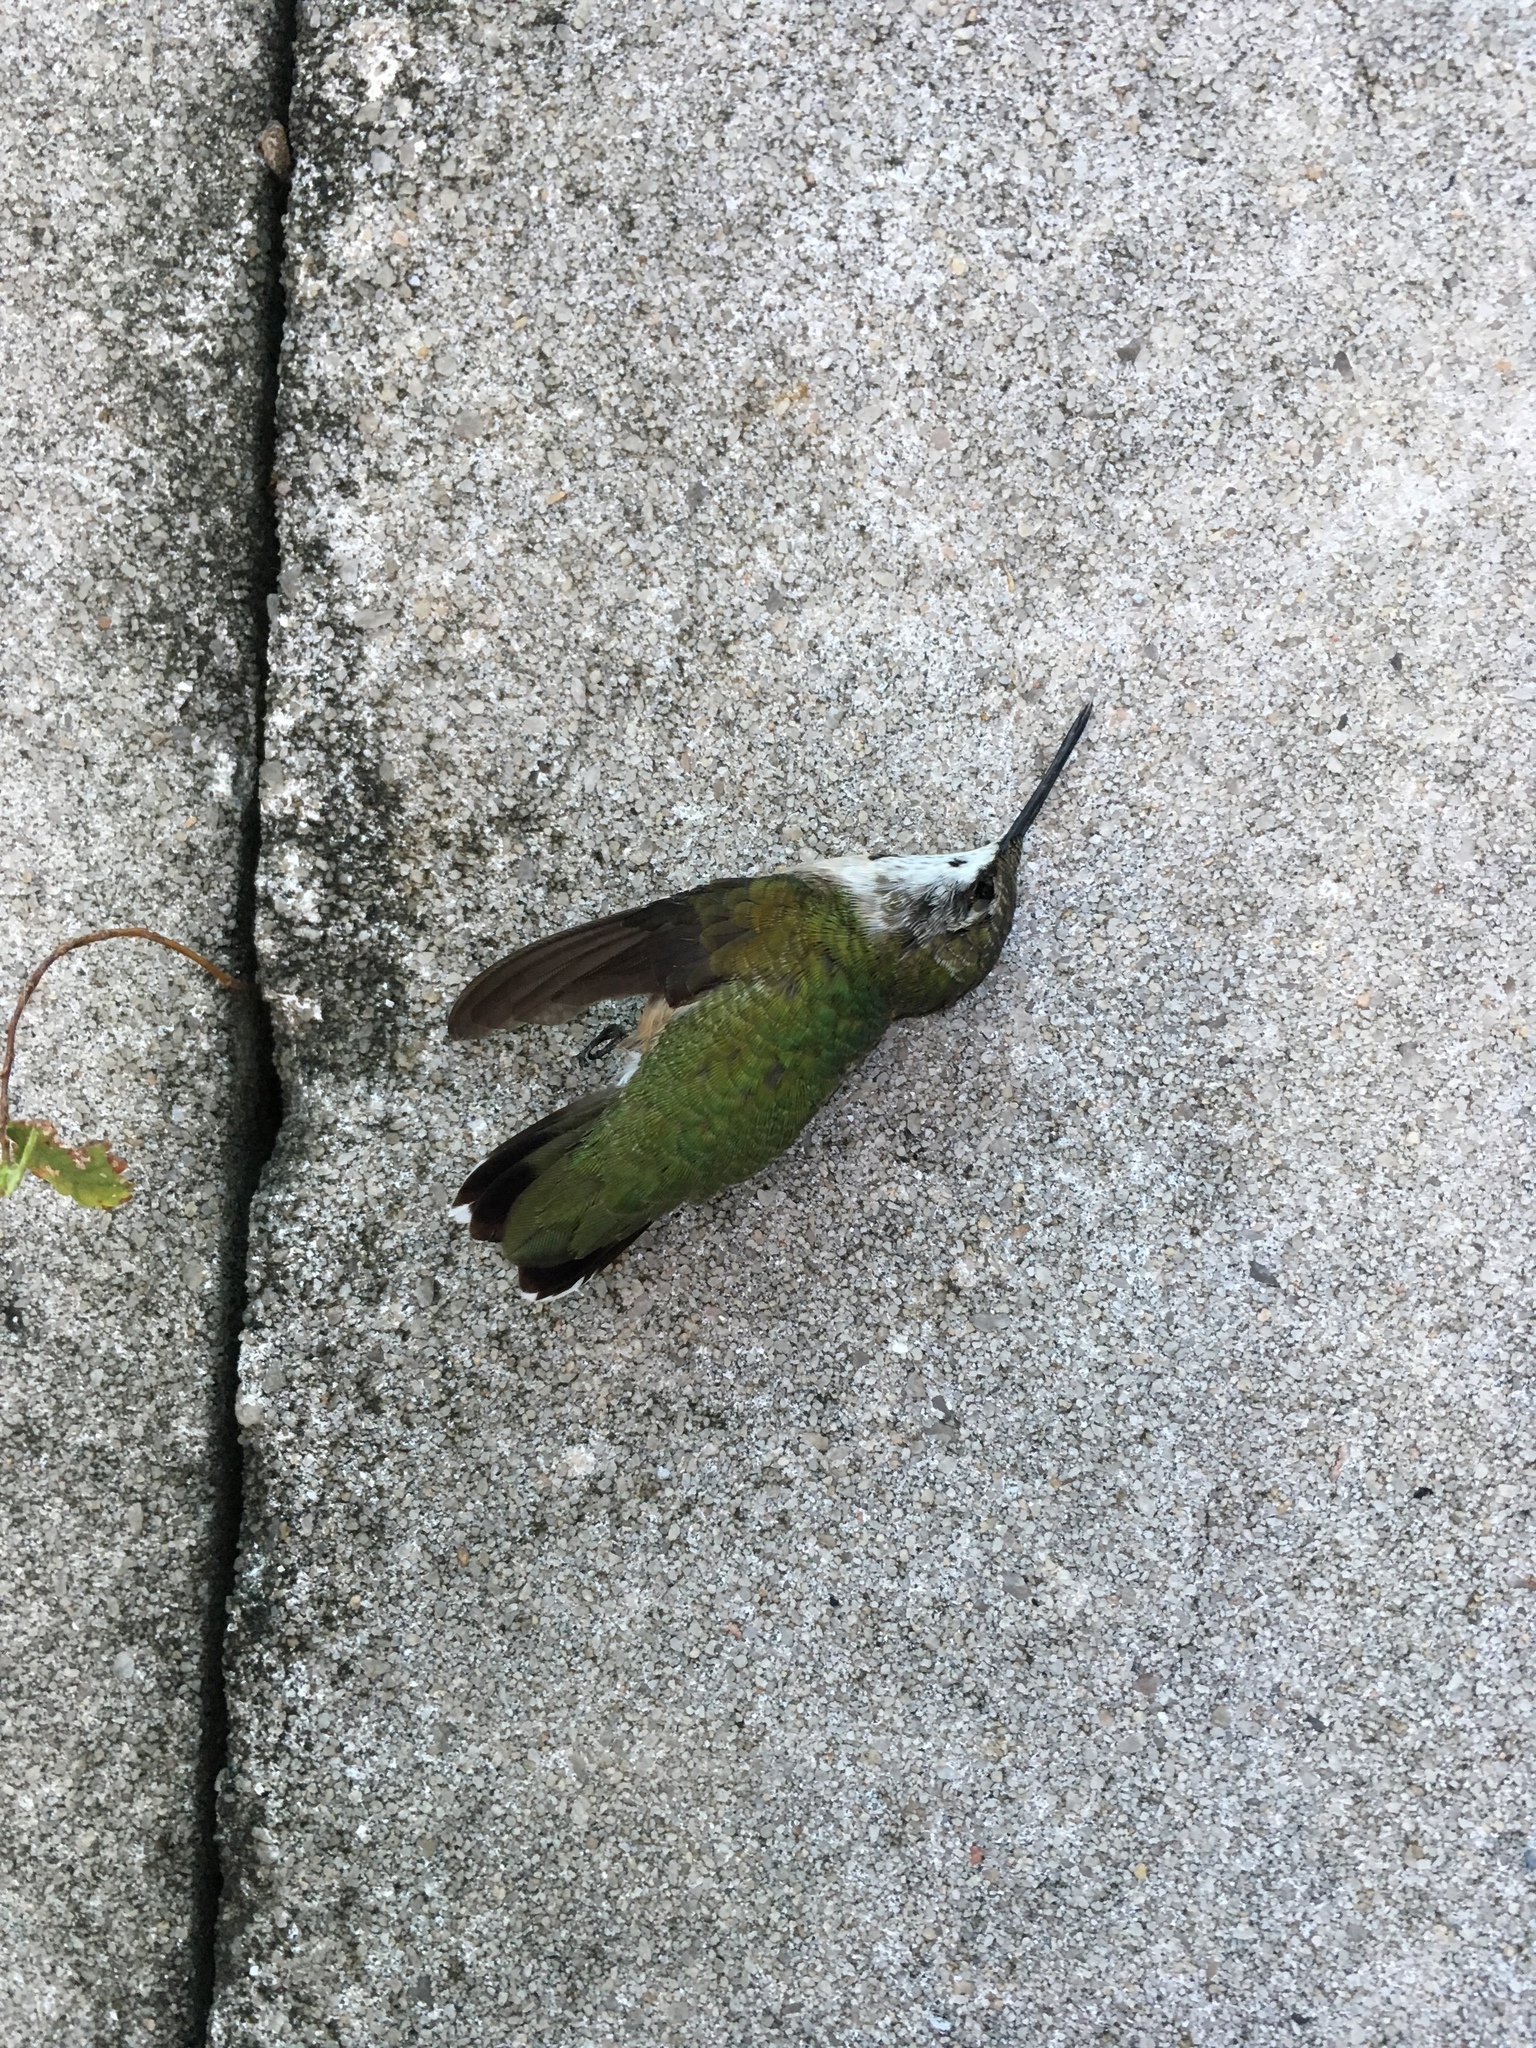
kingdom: Animalia
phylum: Chordata
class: Aves
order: Apodiformes
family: Trochilidae
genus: Archilochus
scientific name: Archilochus colubris
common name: Ruby-throated hummingbird
